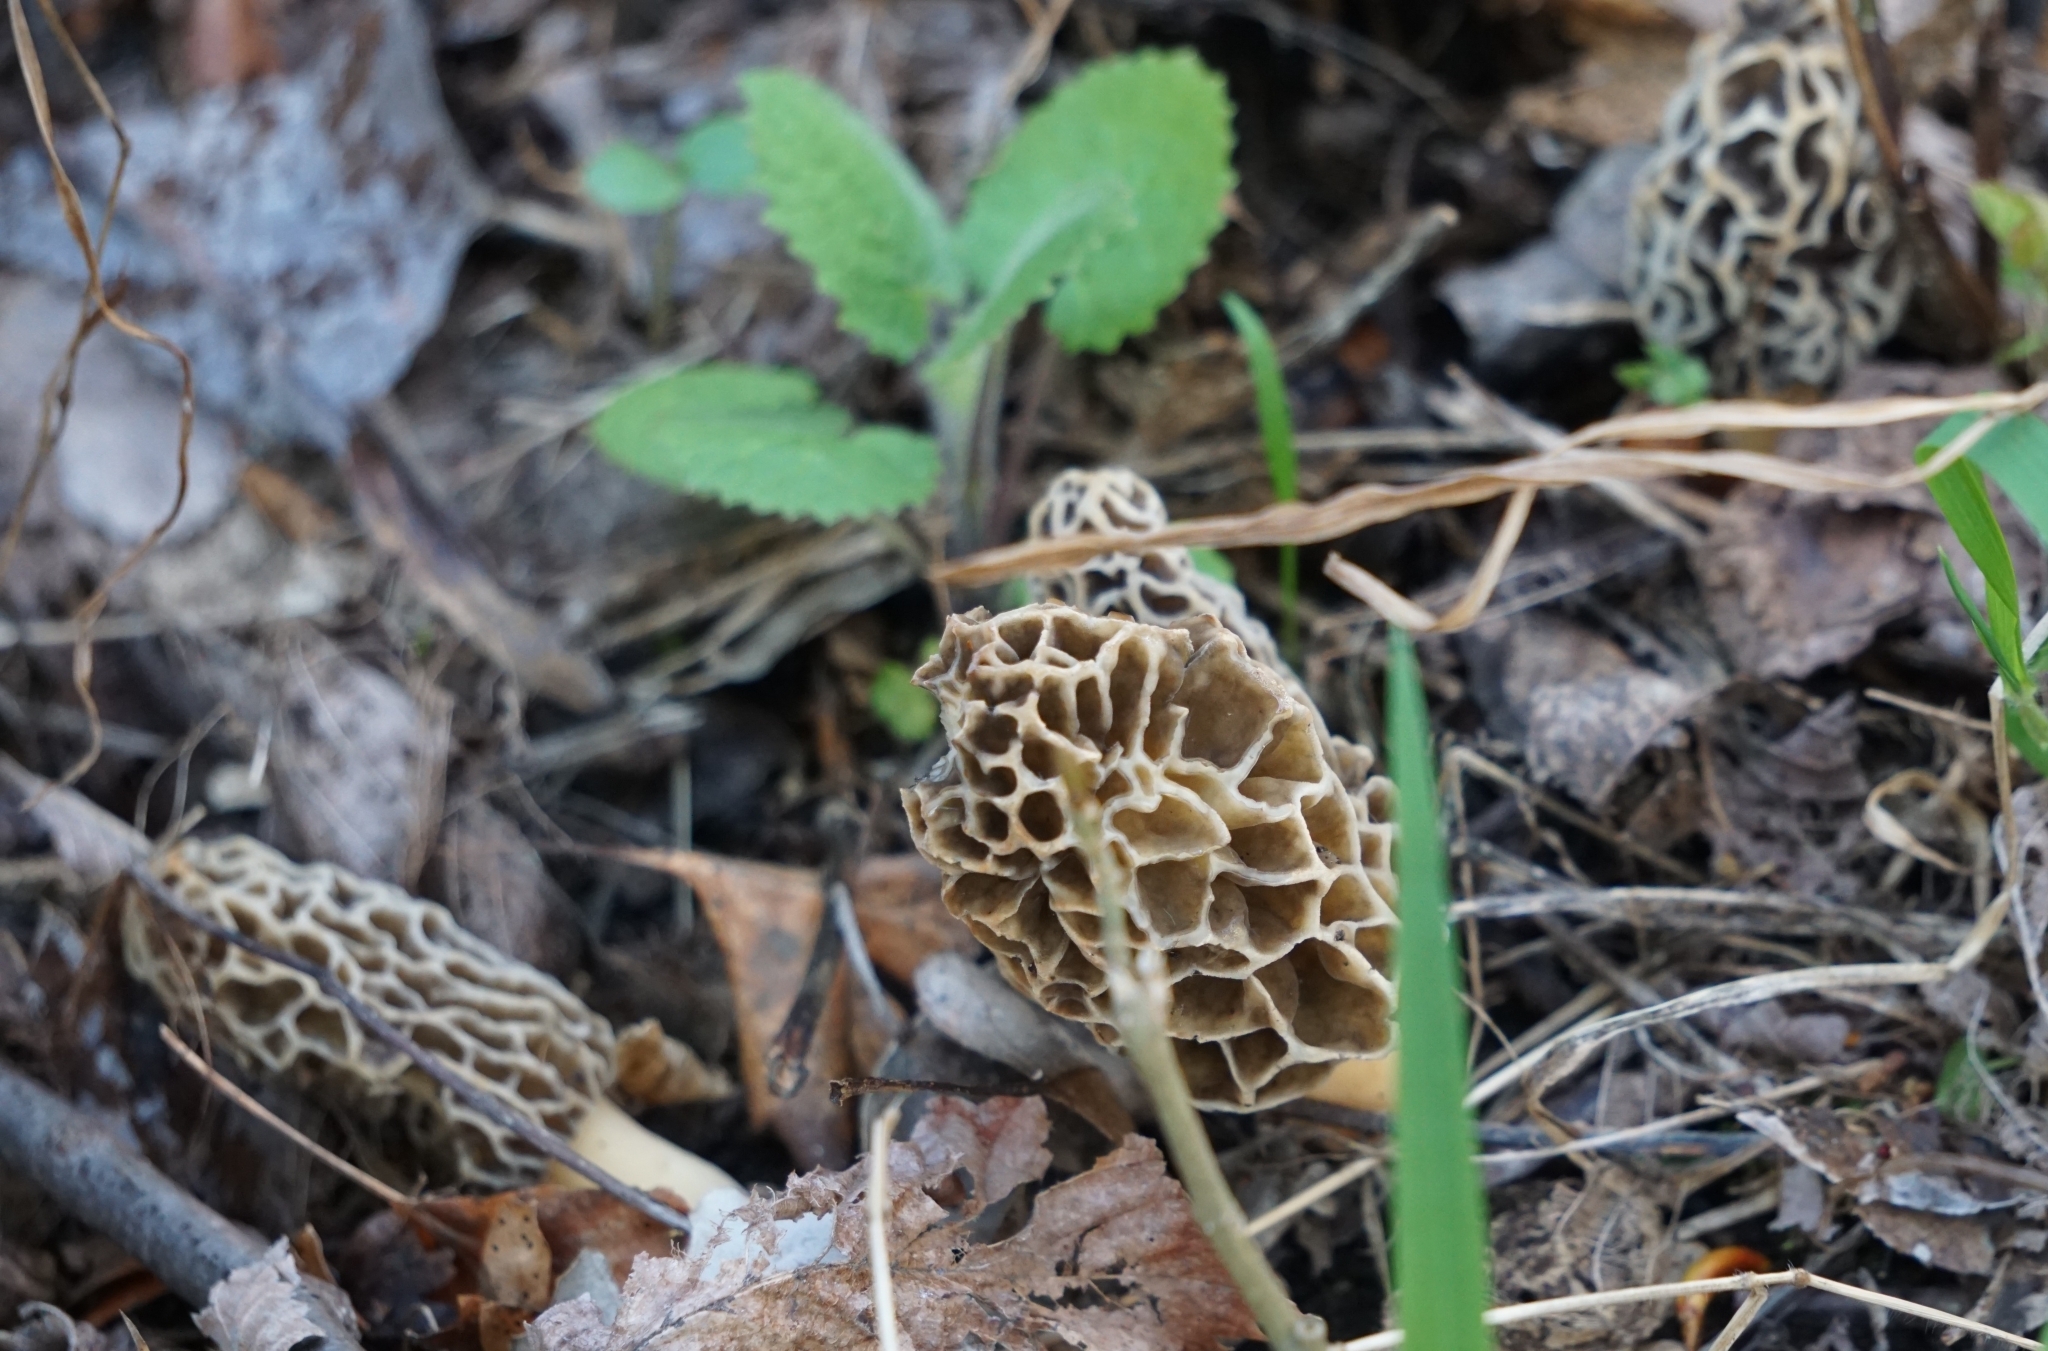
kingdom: Fungi
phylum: Ascomycota
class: Pezizomycetes
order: Pezizales
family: Morchellaceae
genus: Morchella
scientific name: Morchella esculenta
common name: Morel
